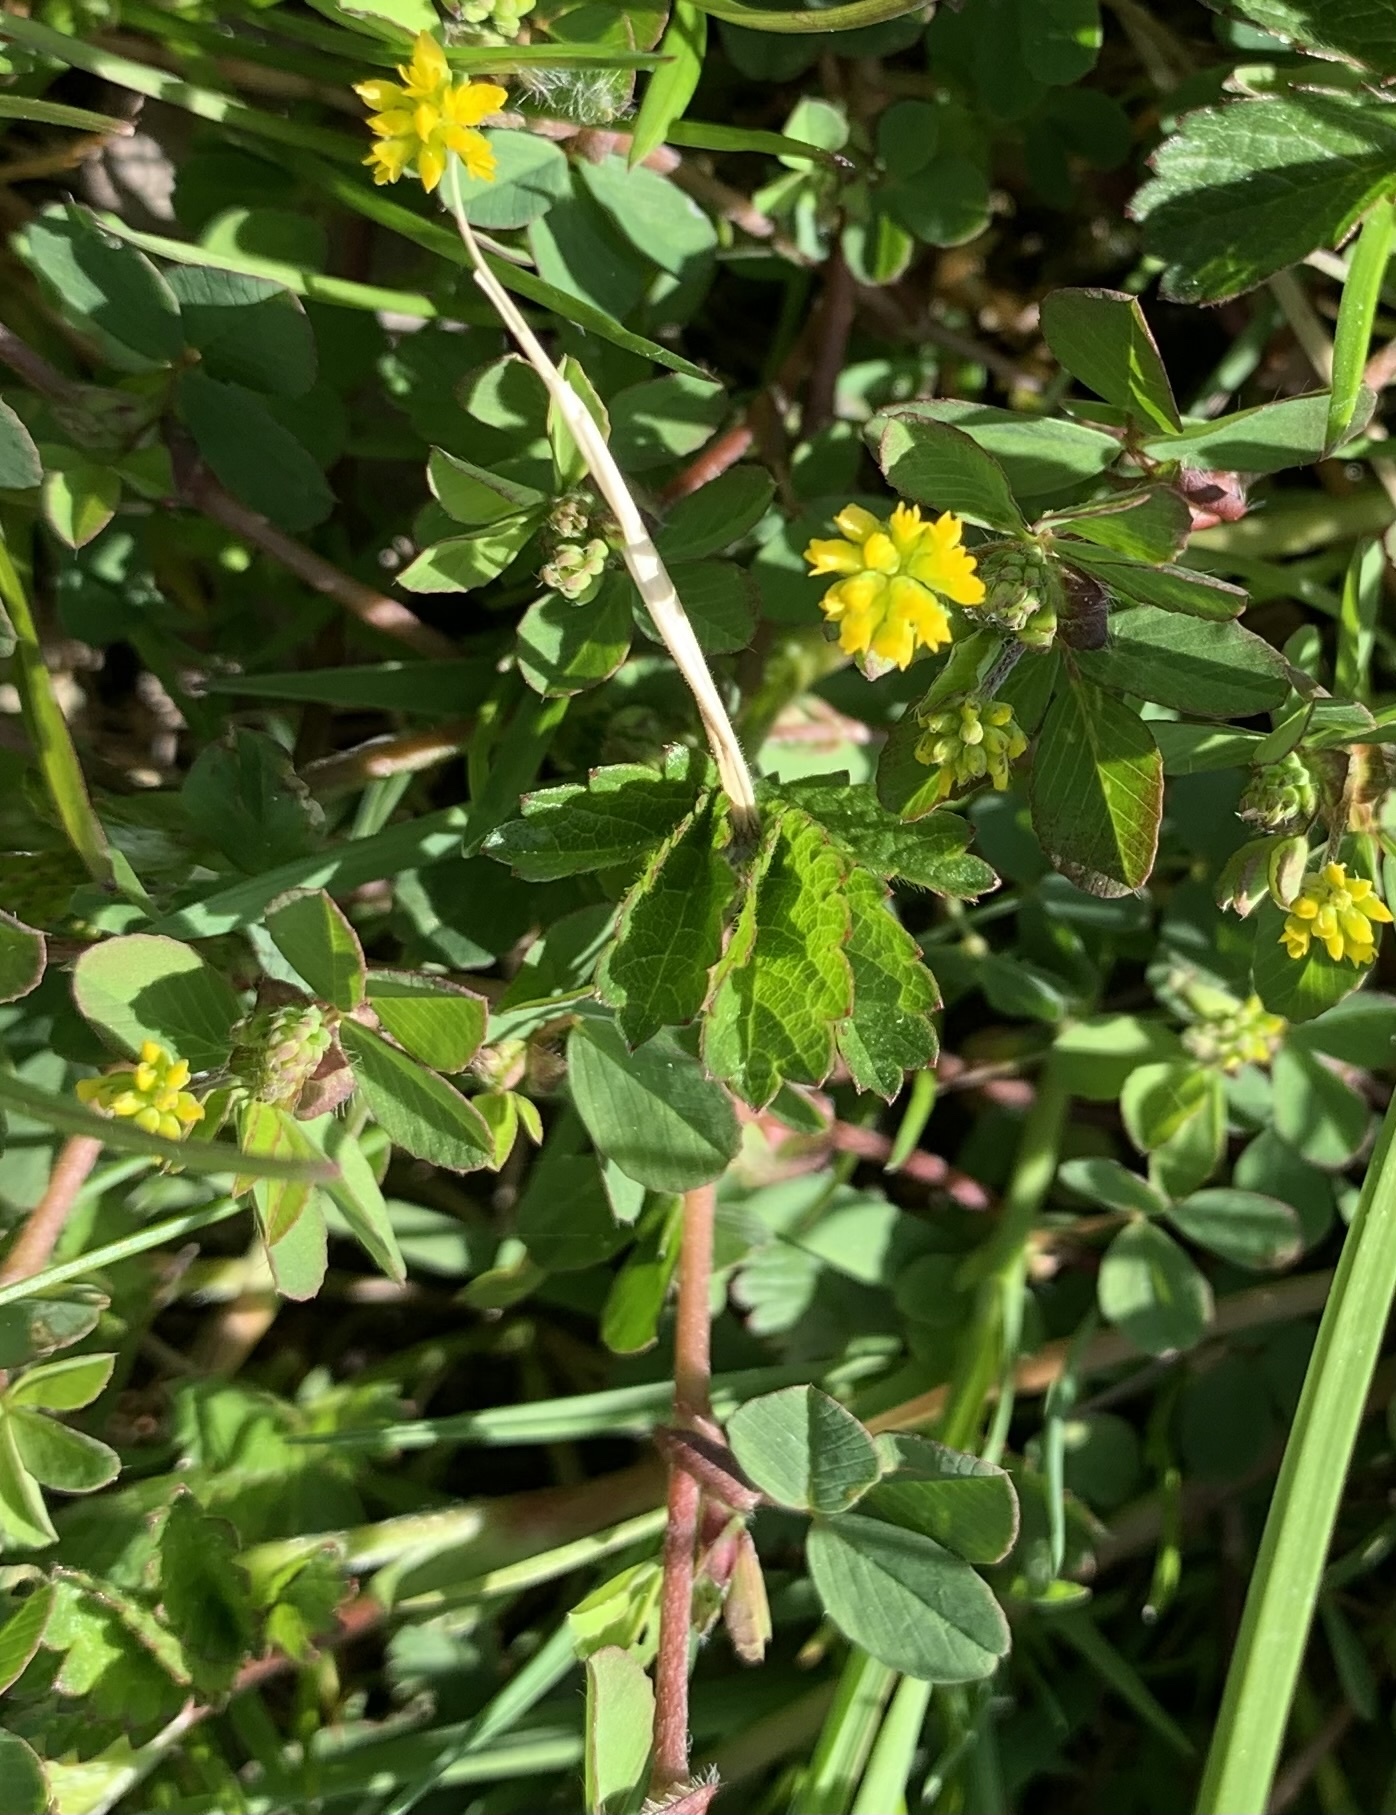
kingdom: Plantae
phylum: Tracheophyta
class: Magnoliopsida
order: Fabales
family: Fabaceae
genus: Trifolium
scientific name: Trifolium dubium
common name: Suckling clover
